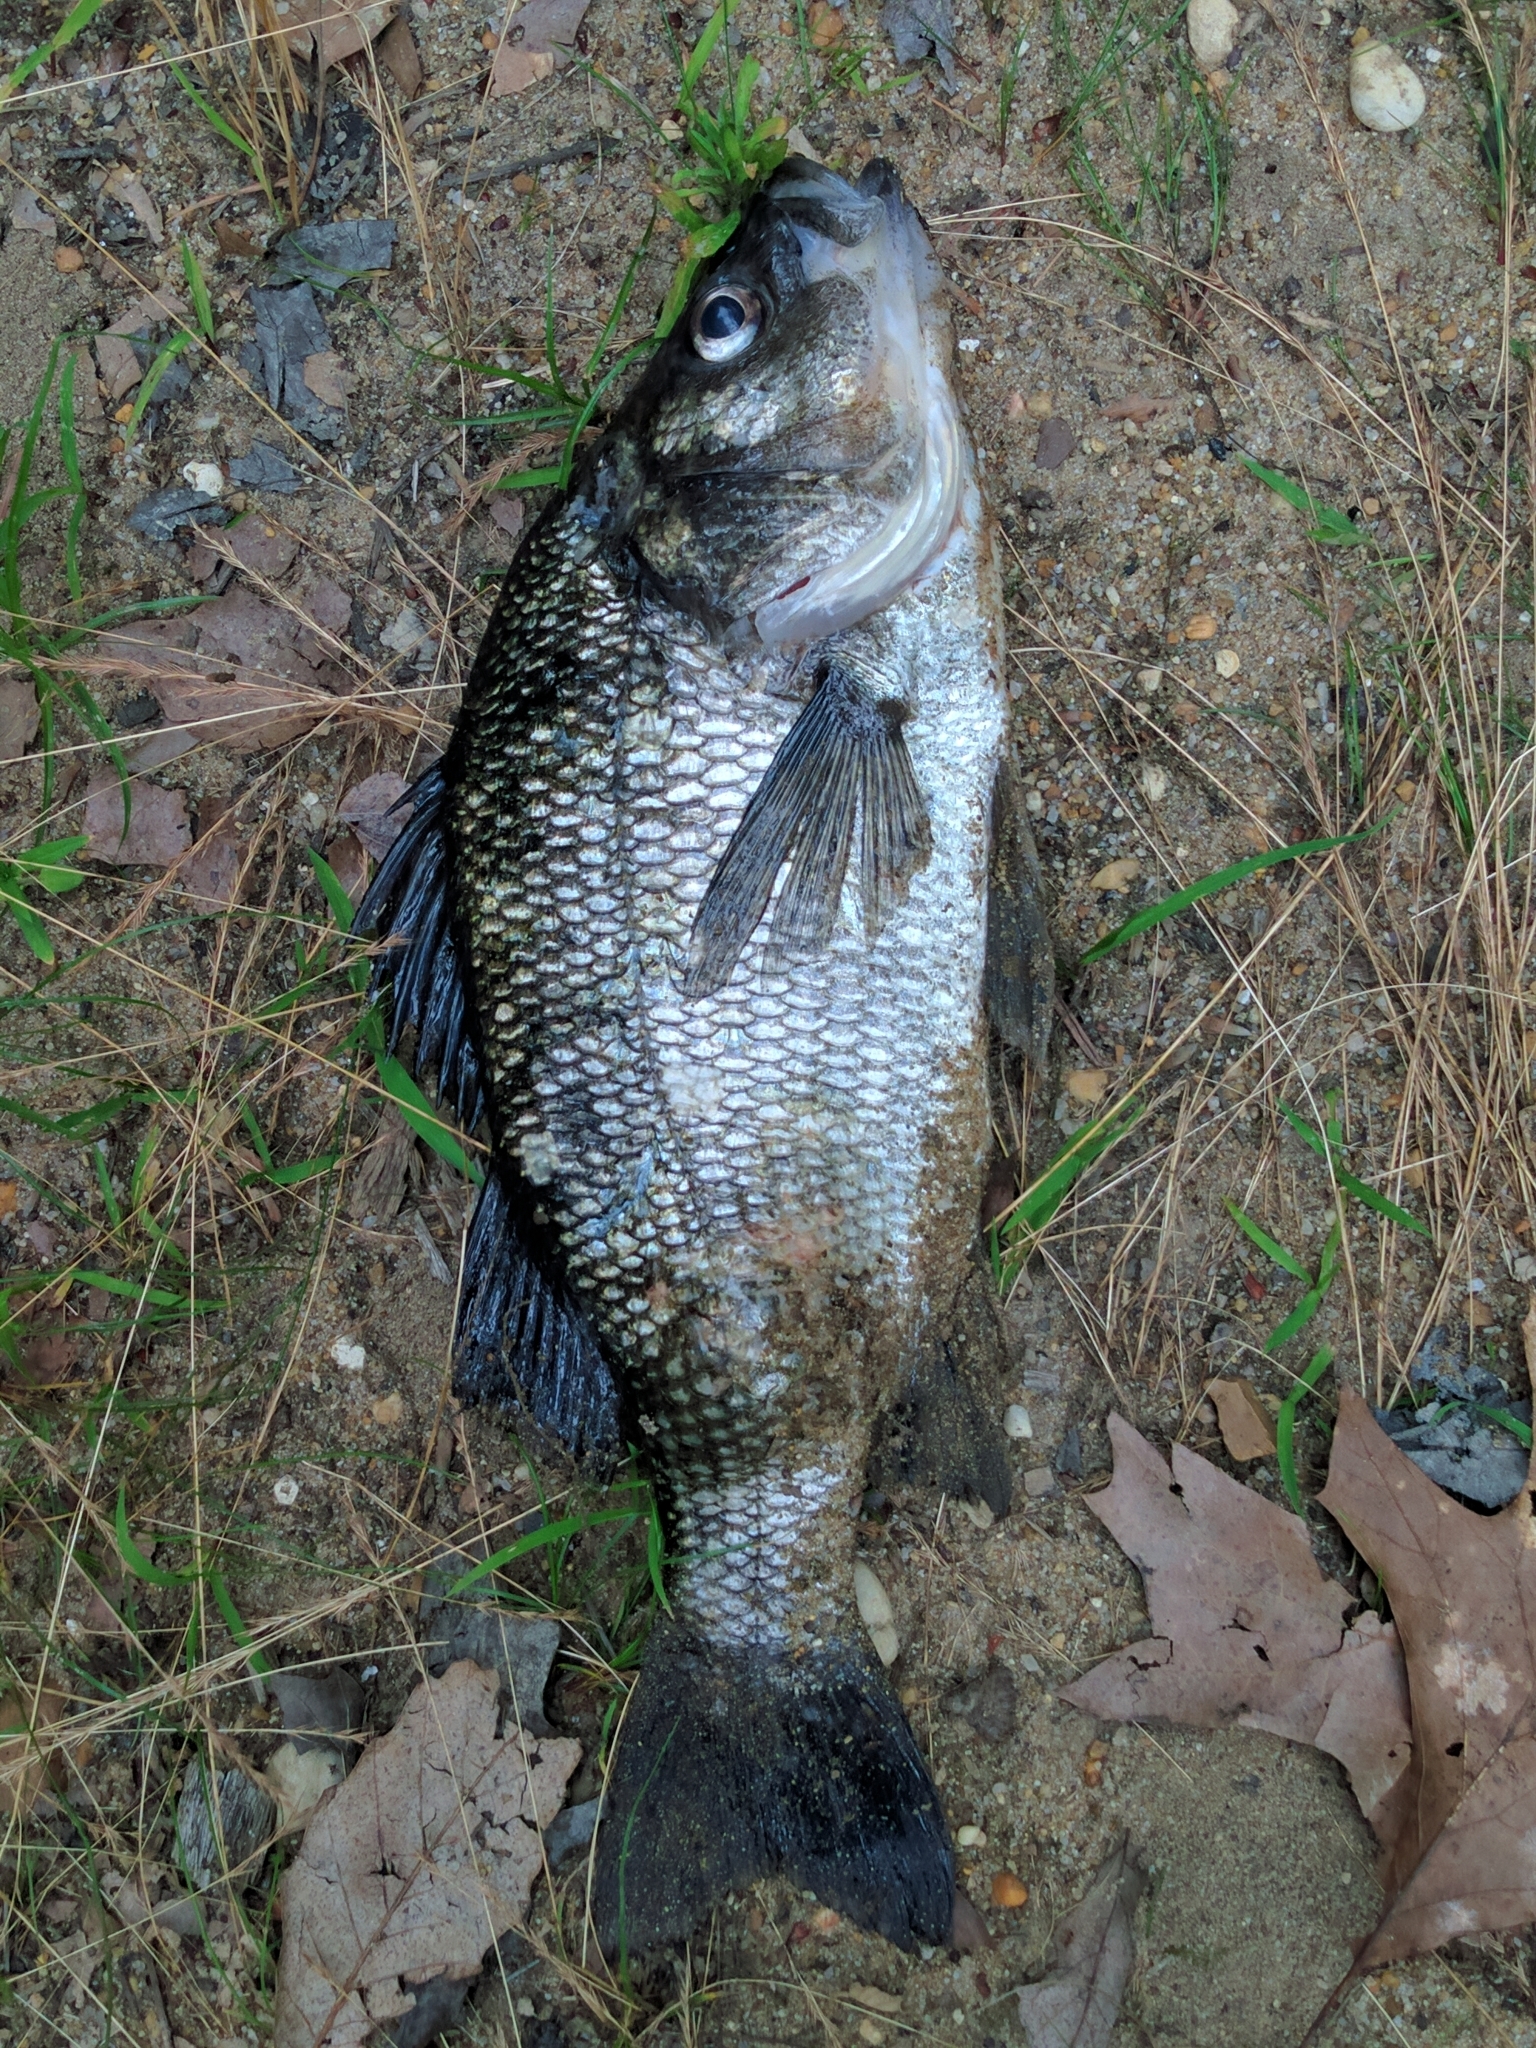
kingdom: Animalia
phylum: Chordata
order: Perciformes
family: Moronidae
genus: Morone
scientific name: Morone americana
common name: White perch
